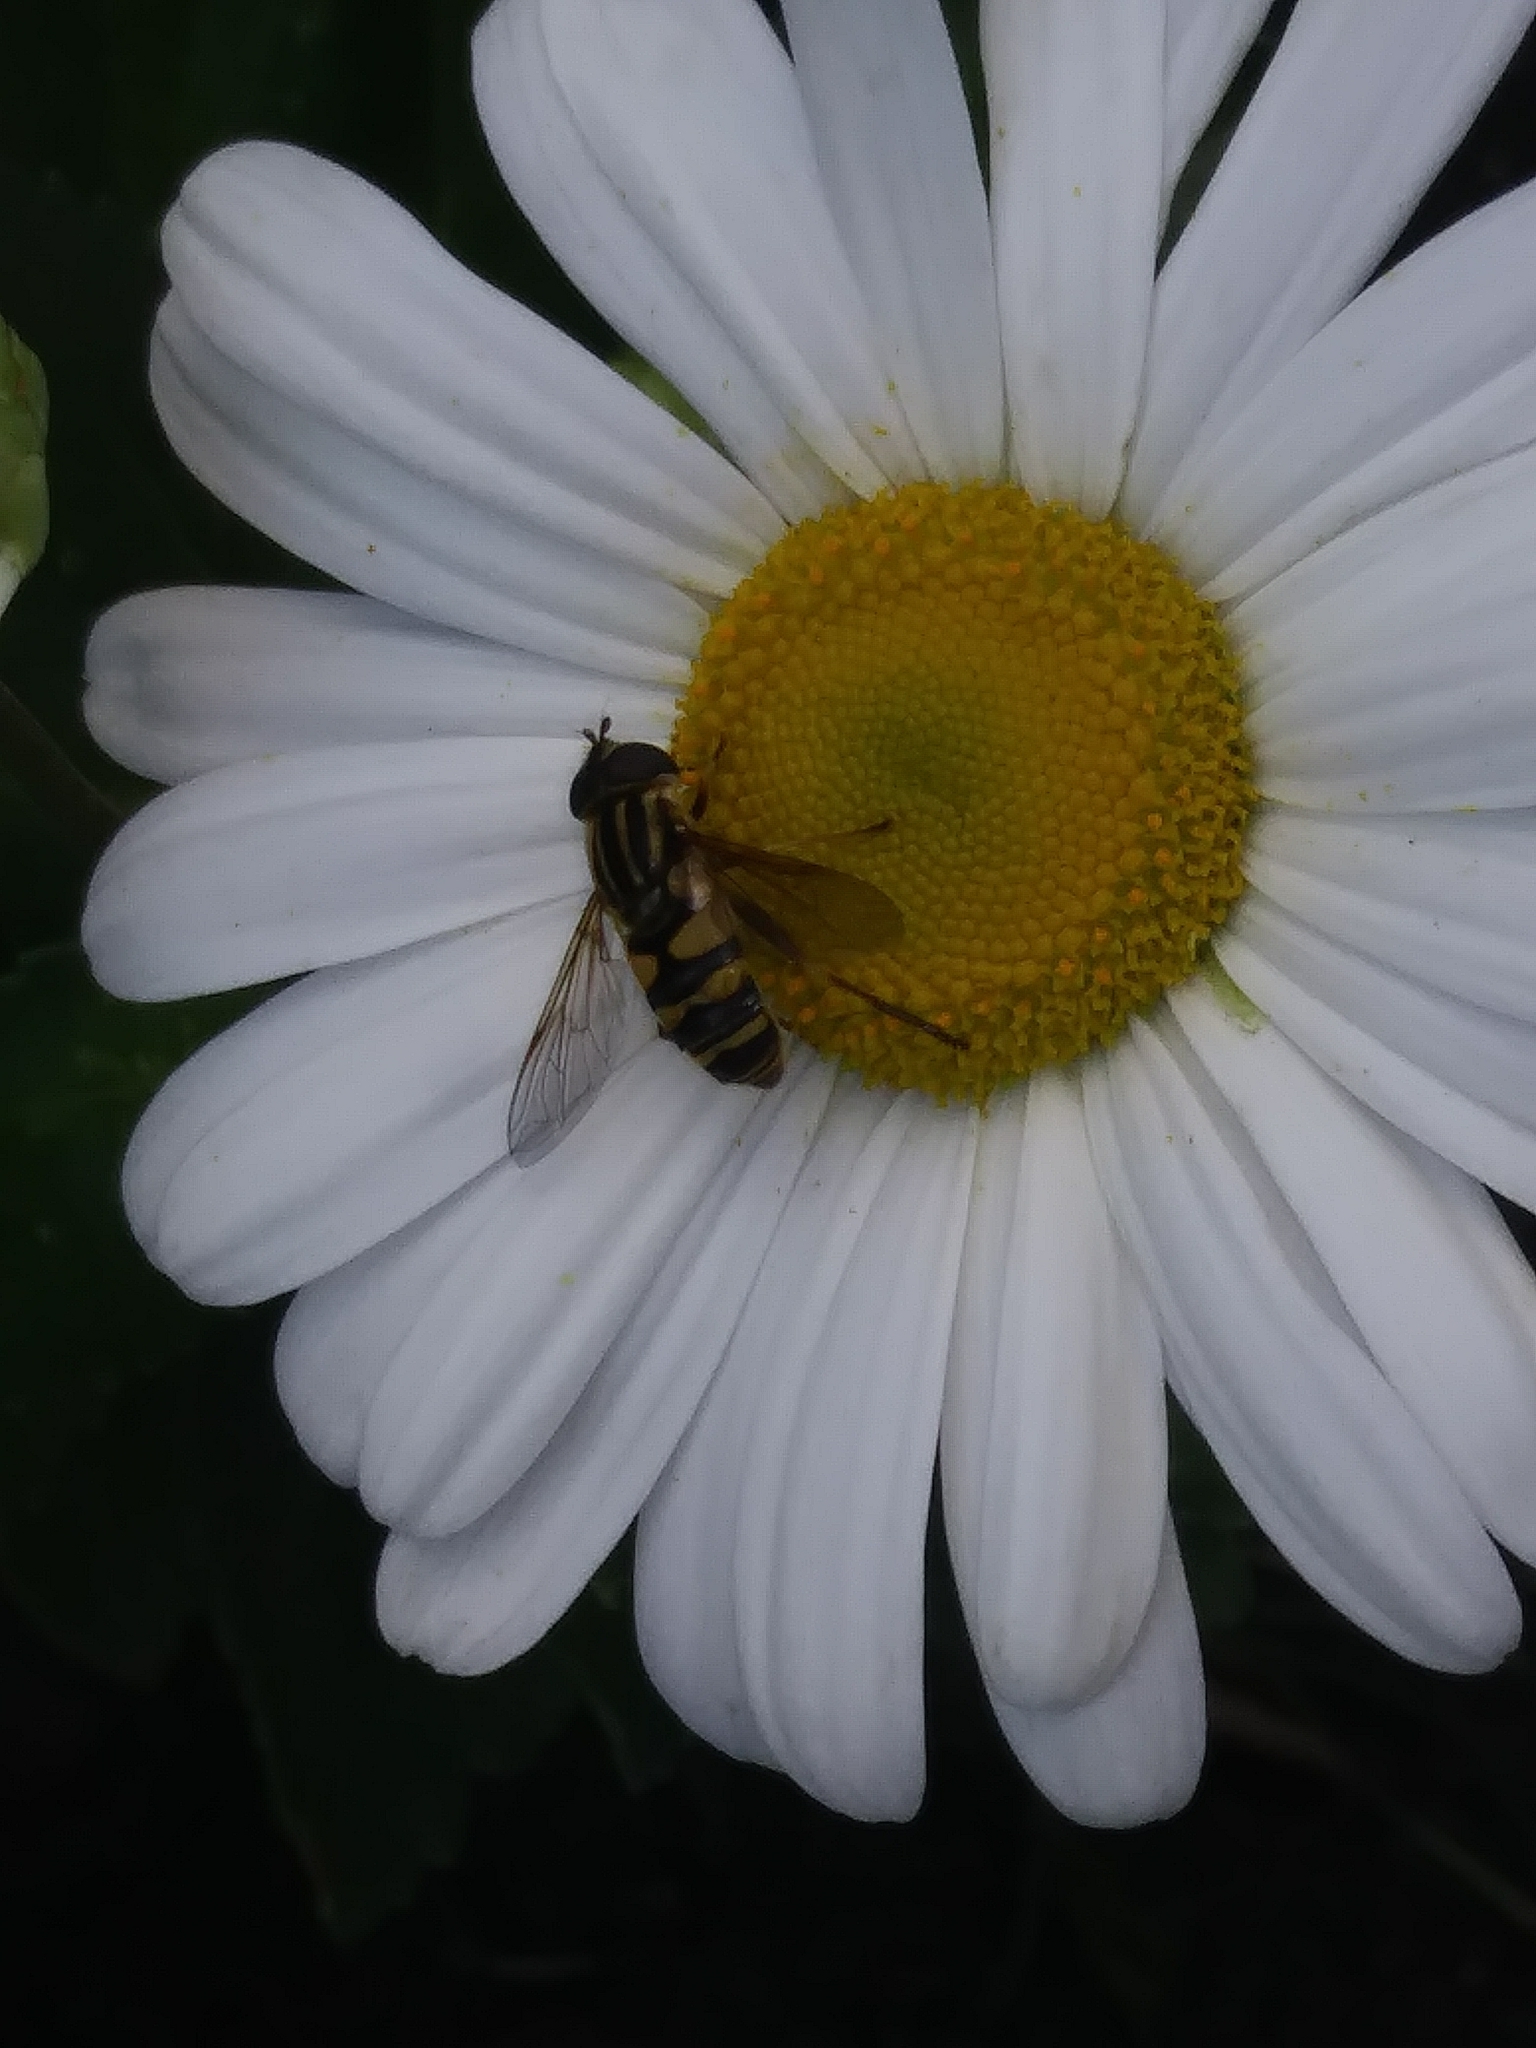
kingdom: Animalia
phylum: Arthropoda
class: Insecta
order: Diptera
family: Syrphidae
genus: Helophilus
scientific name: Helophilus fasciatus
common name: Narrow-headed marsh fly
